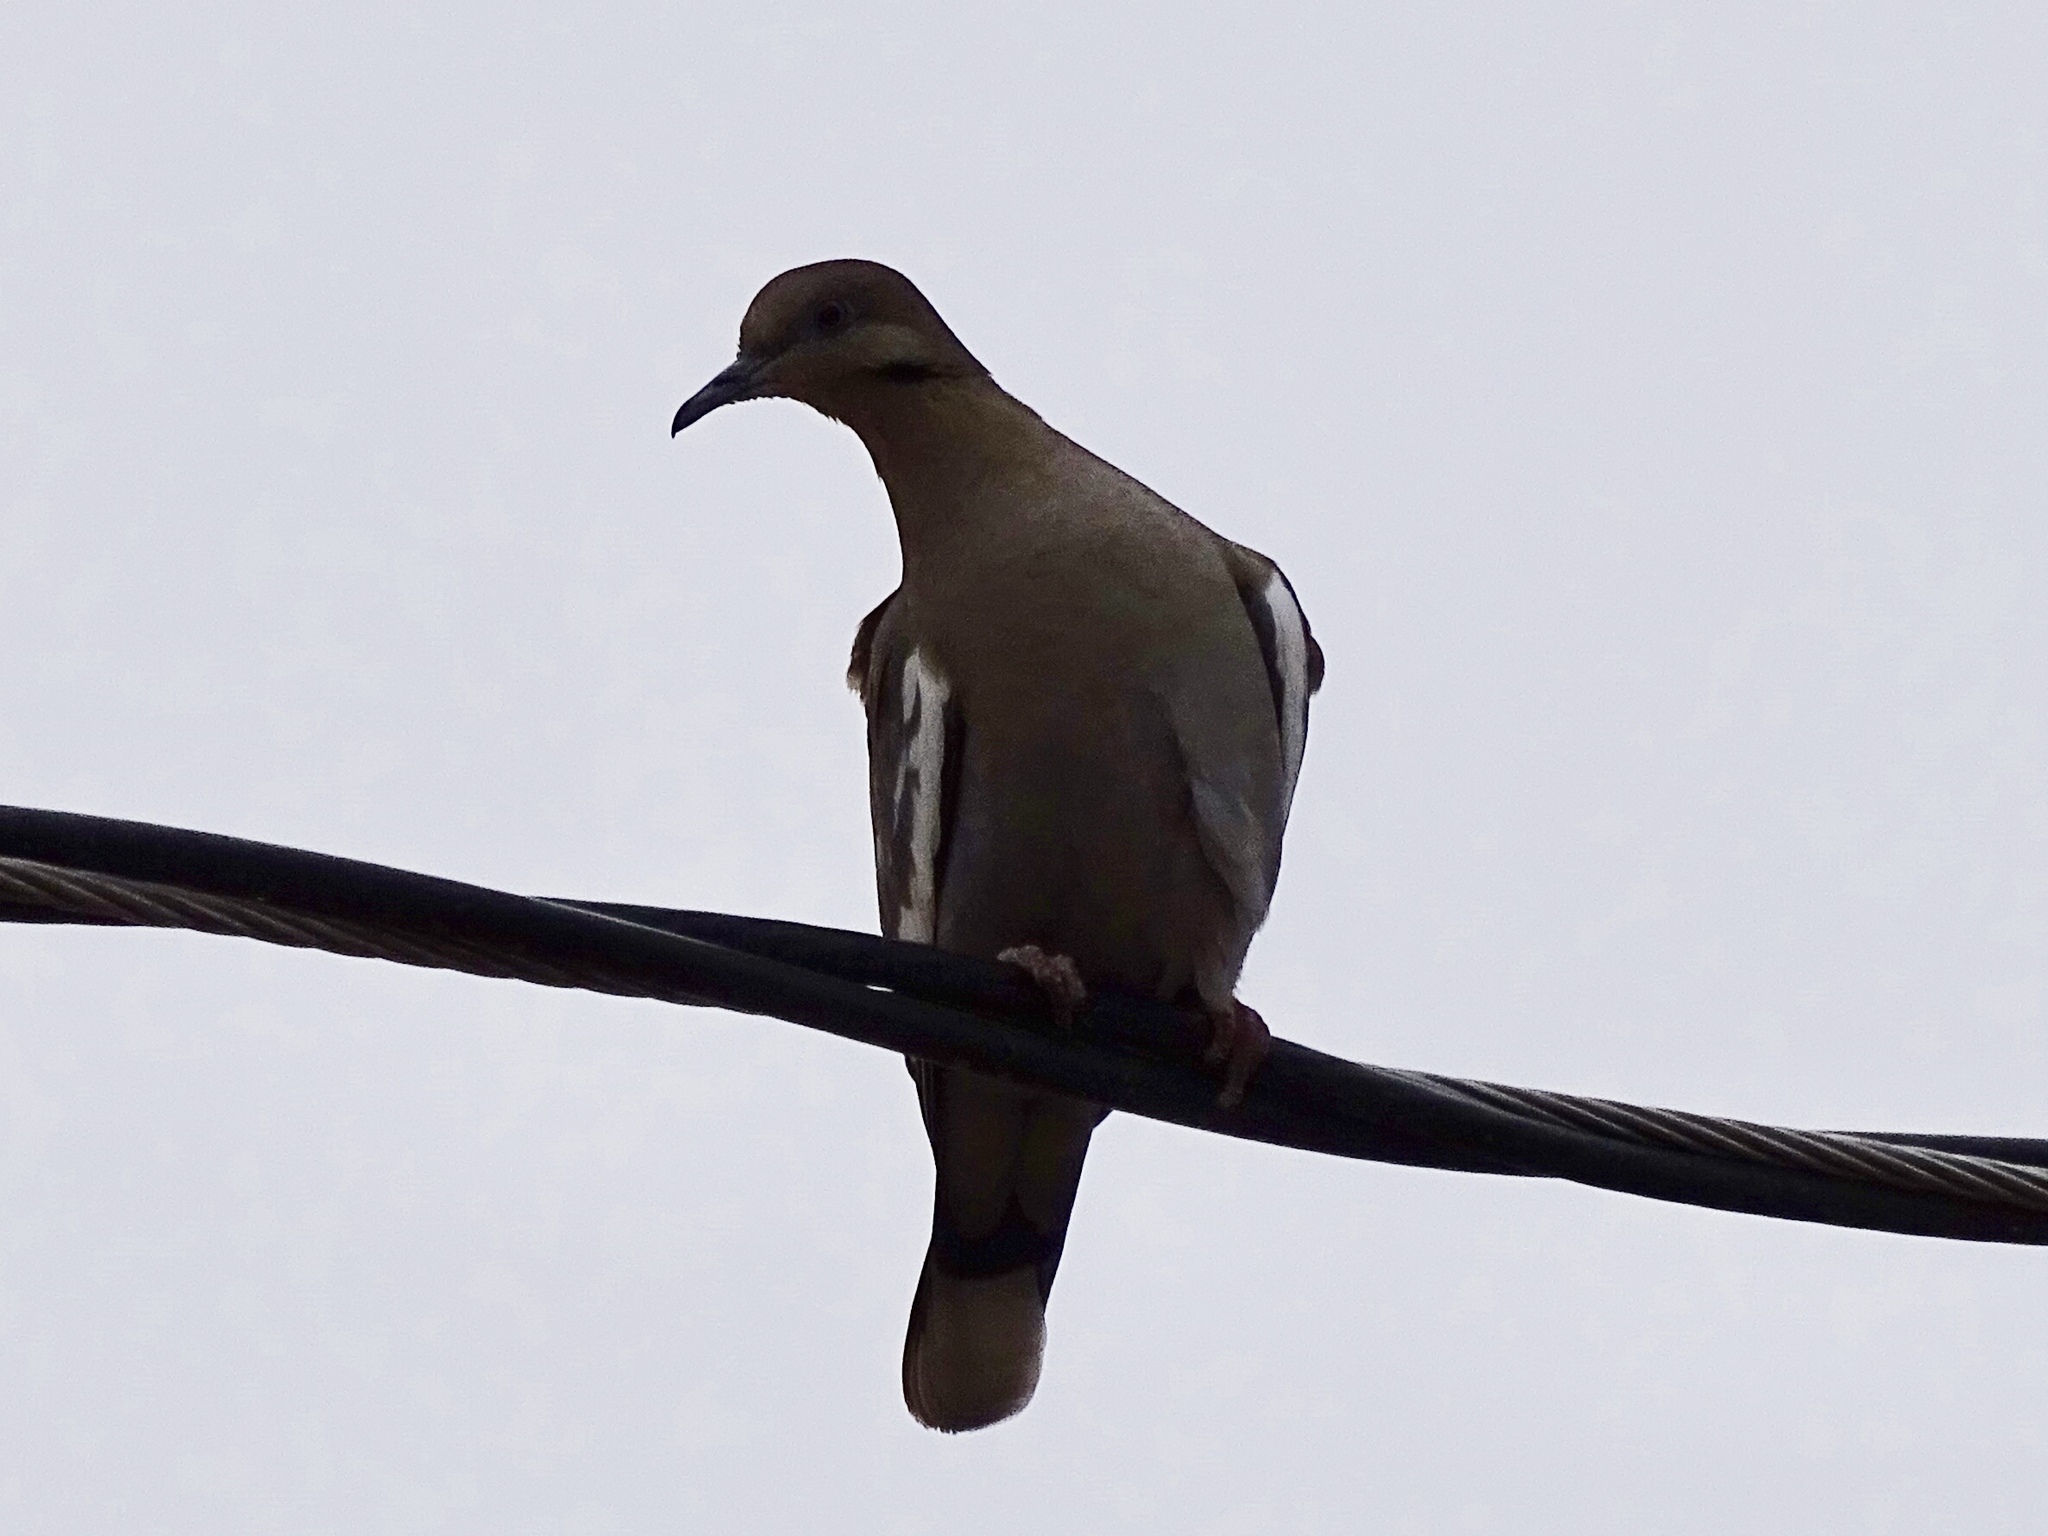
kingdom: Animalia
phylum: Chordata
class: Aves
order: Columbiformes
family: Columbidae
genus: Zenaida
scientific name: Zenaida asiatica
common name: White-winged dove
